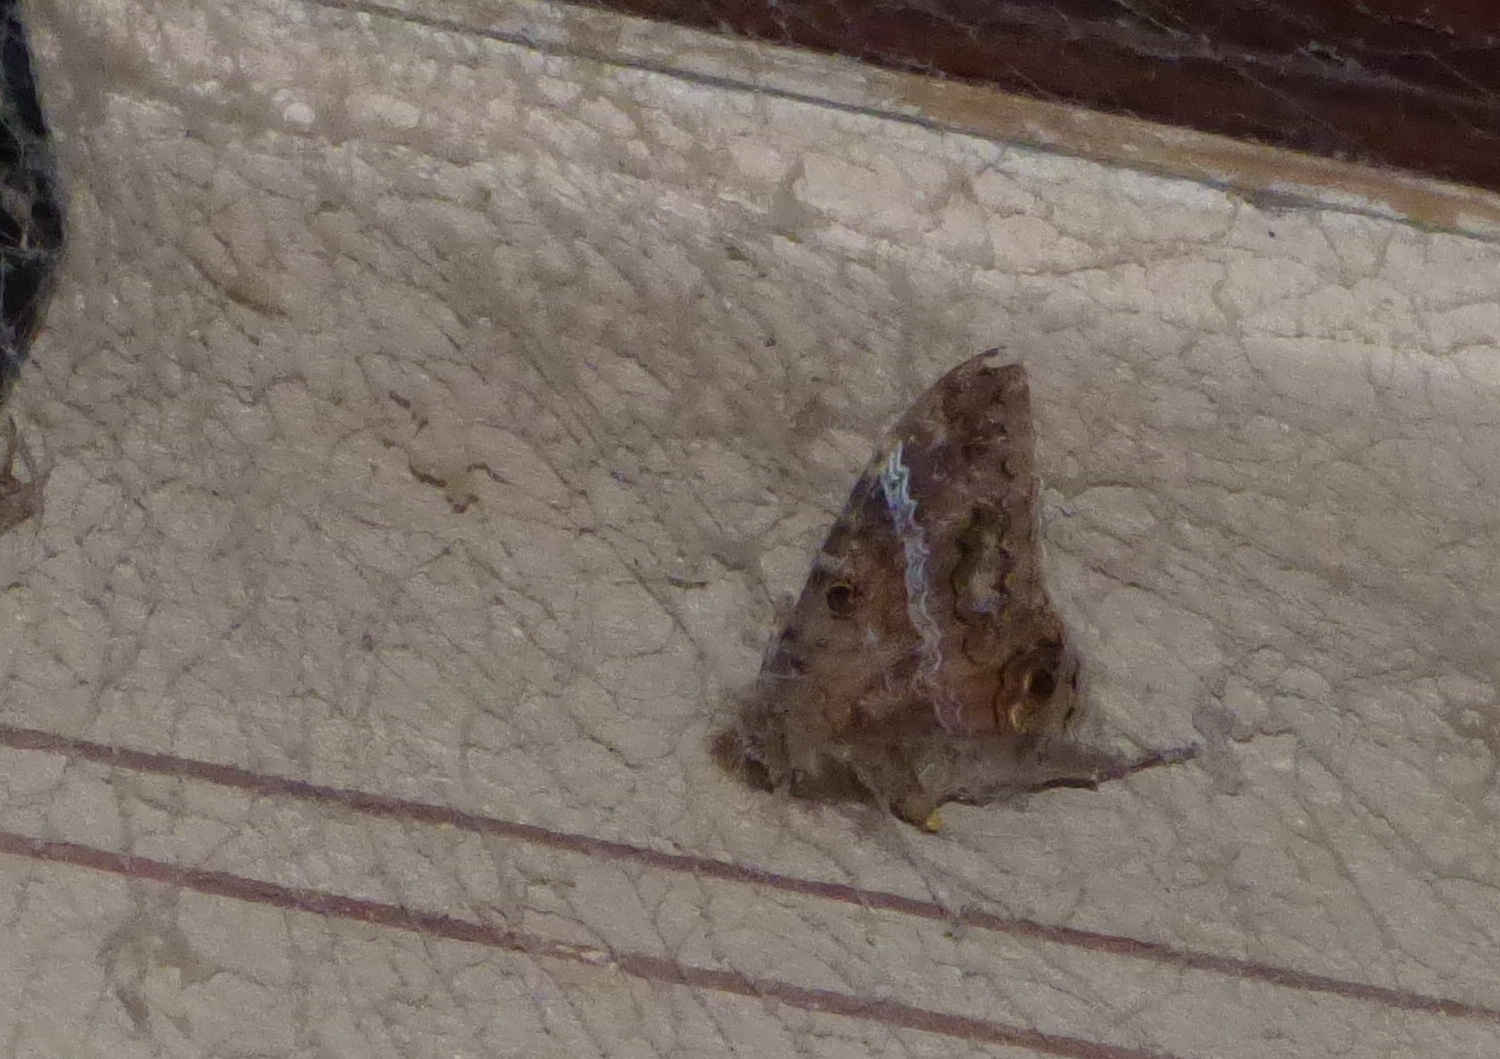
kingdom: Animalia
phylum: Arthropoda
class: Insecta
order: Lepidoptera
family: Erebidae
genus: Ascalapha
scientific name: Ascalapha odorata
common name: Black witch
